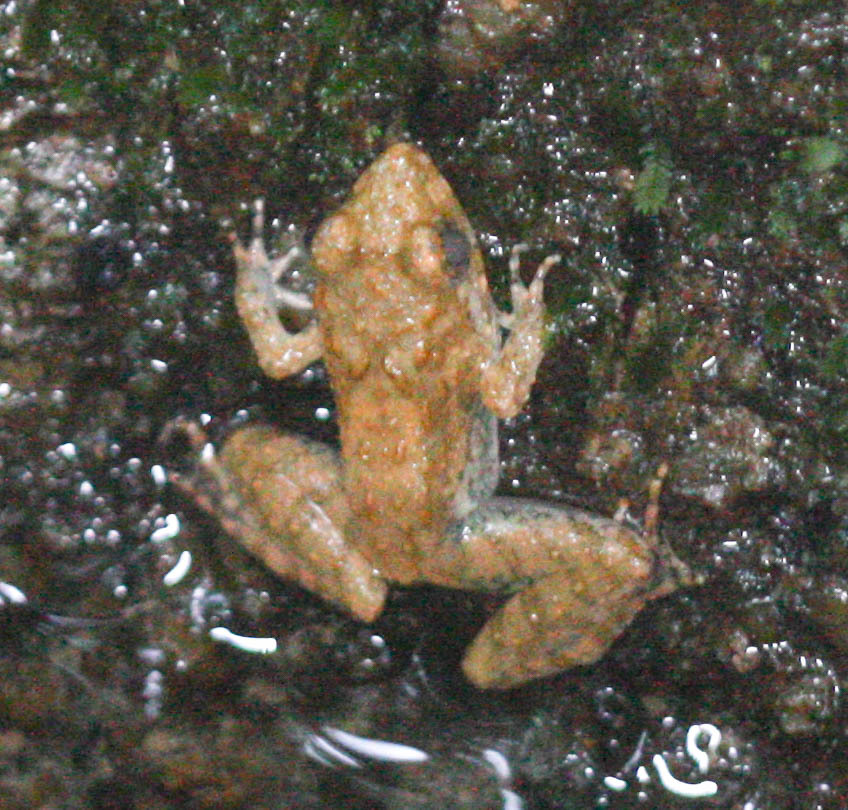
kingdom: Animalia
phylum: Chordata
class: Amphibia
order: Anura
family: Dicroglossidae
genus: Limnonectes
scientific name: Limnonectes blythii
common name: Blyth’s river frog/giant asian river frog/giant frog
